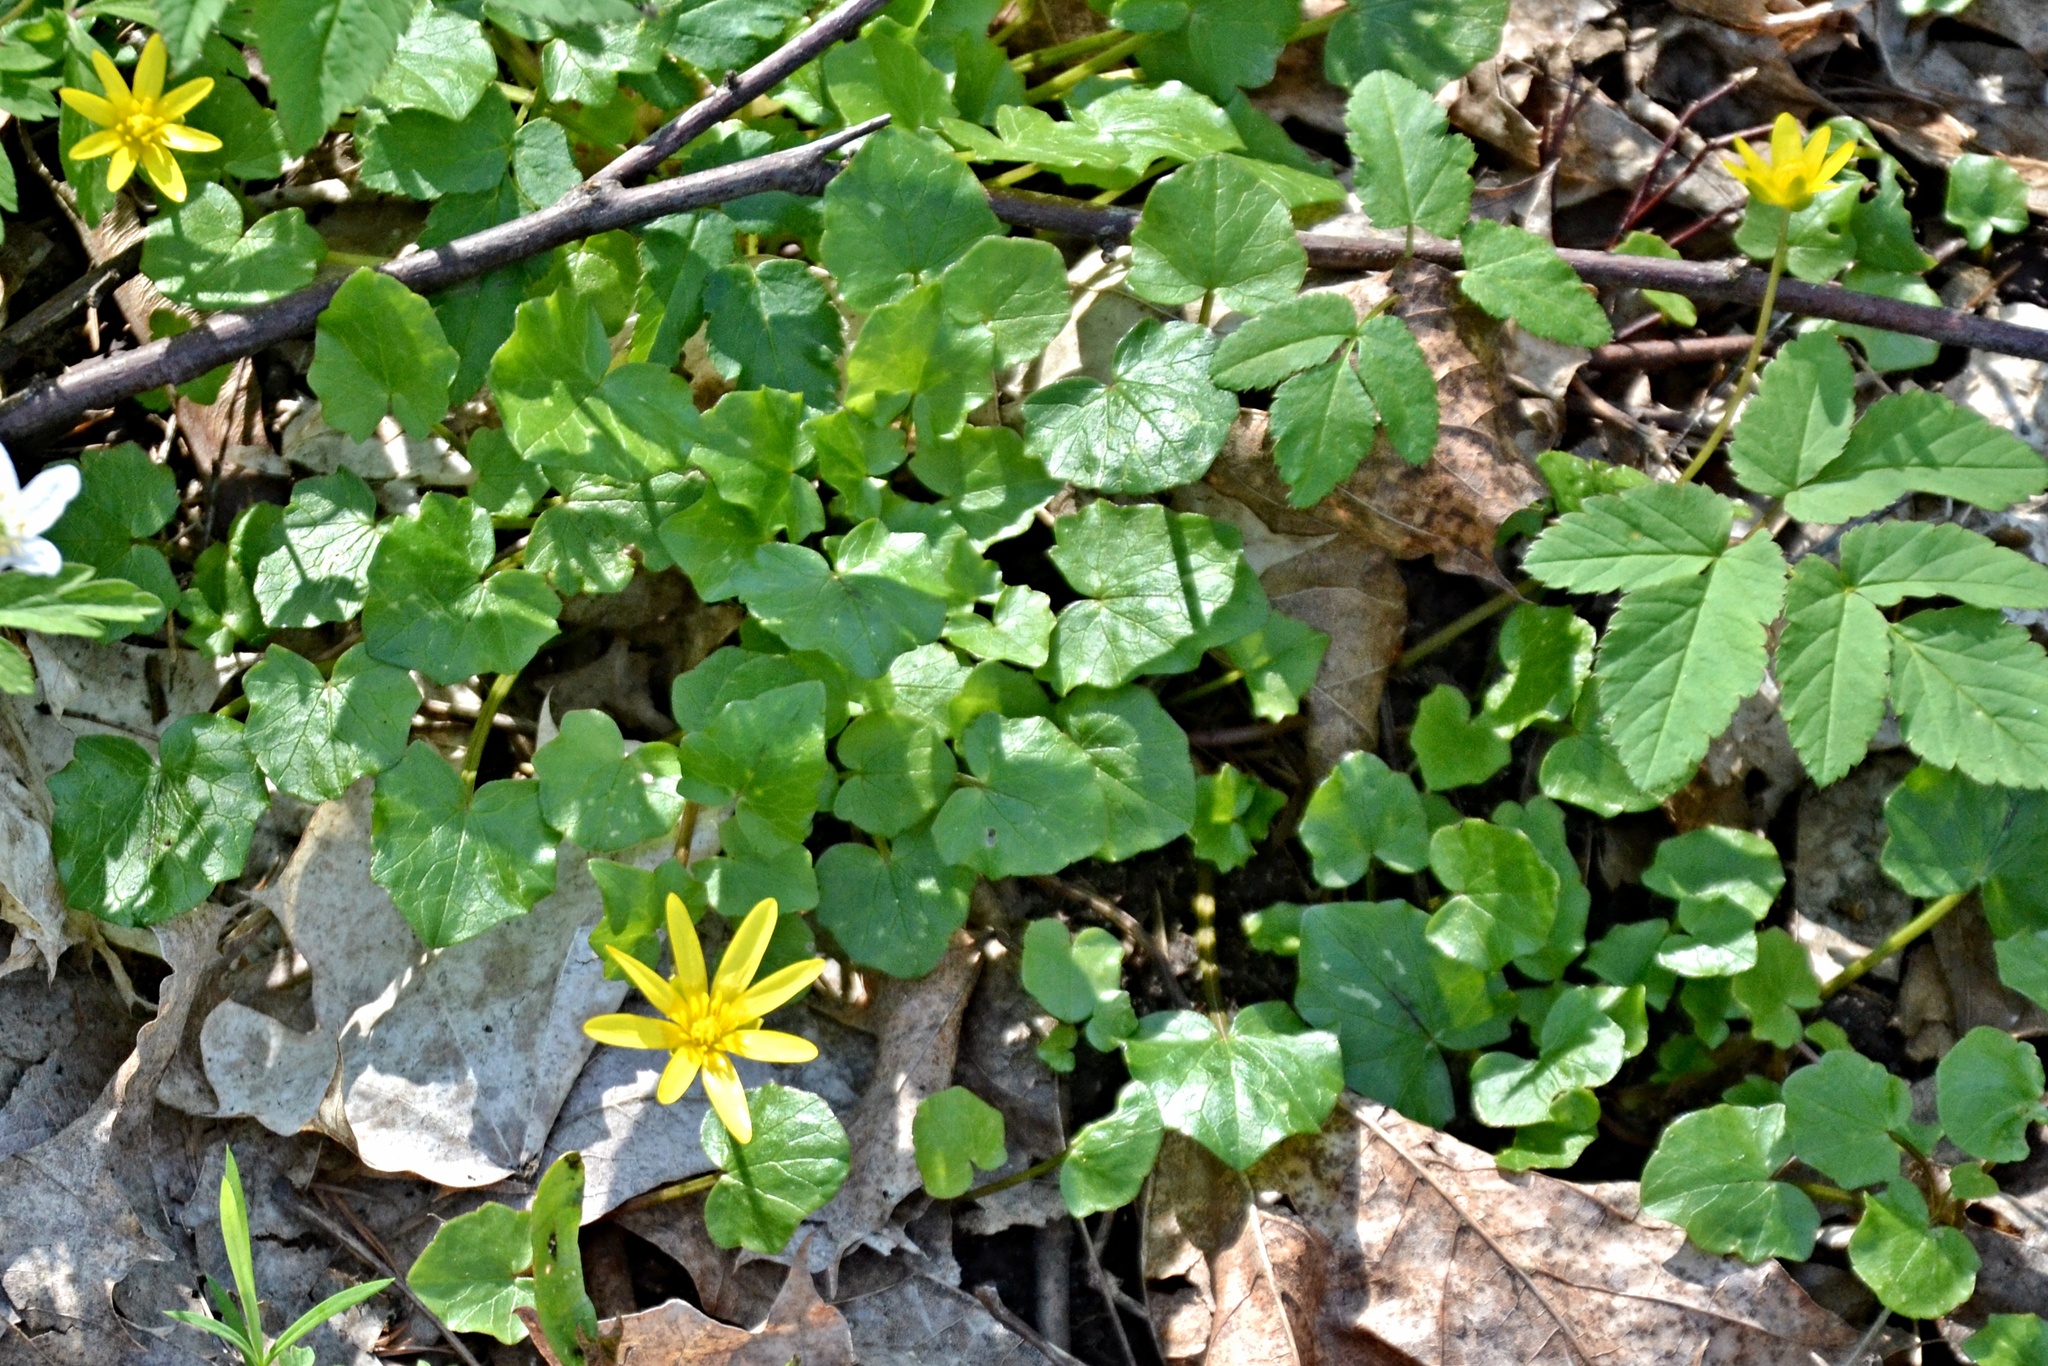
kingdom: Plantae
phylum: Tracheophyta
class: Magnoliopsida
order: Ranunculales
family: Ranunculaceae
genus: Ficaria
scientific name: Ficaria verna
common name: Lesser celandine
